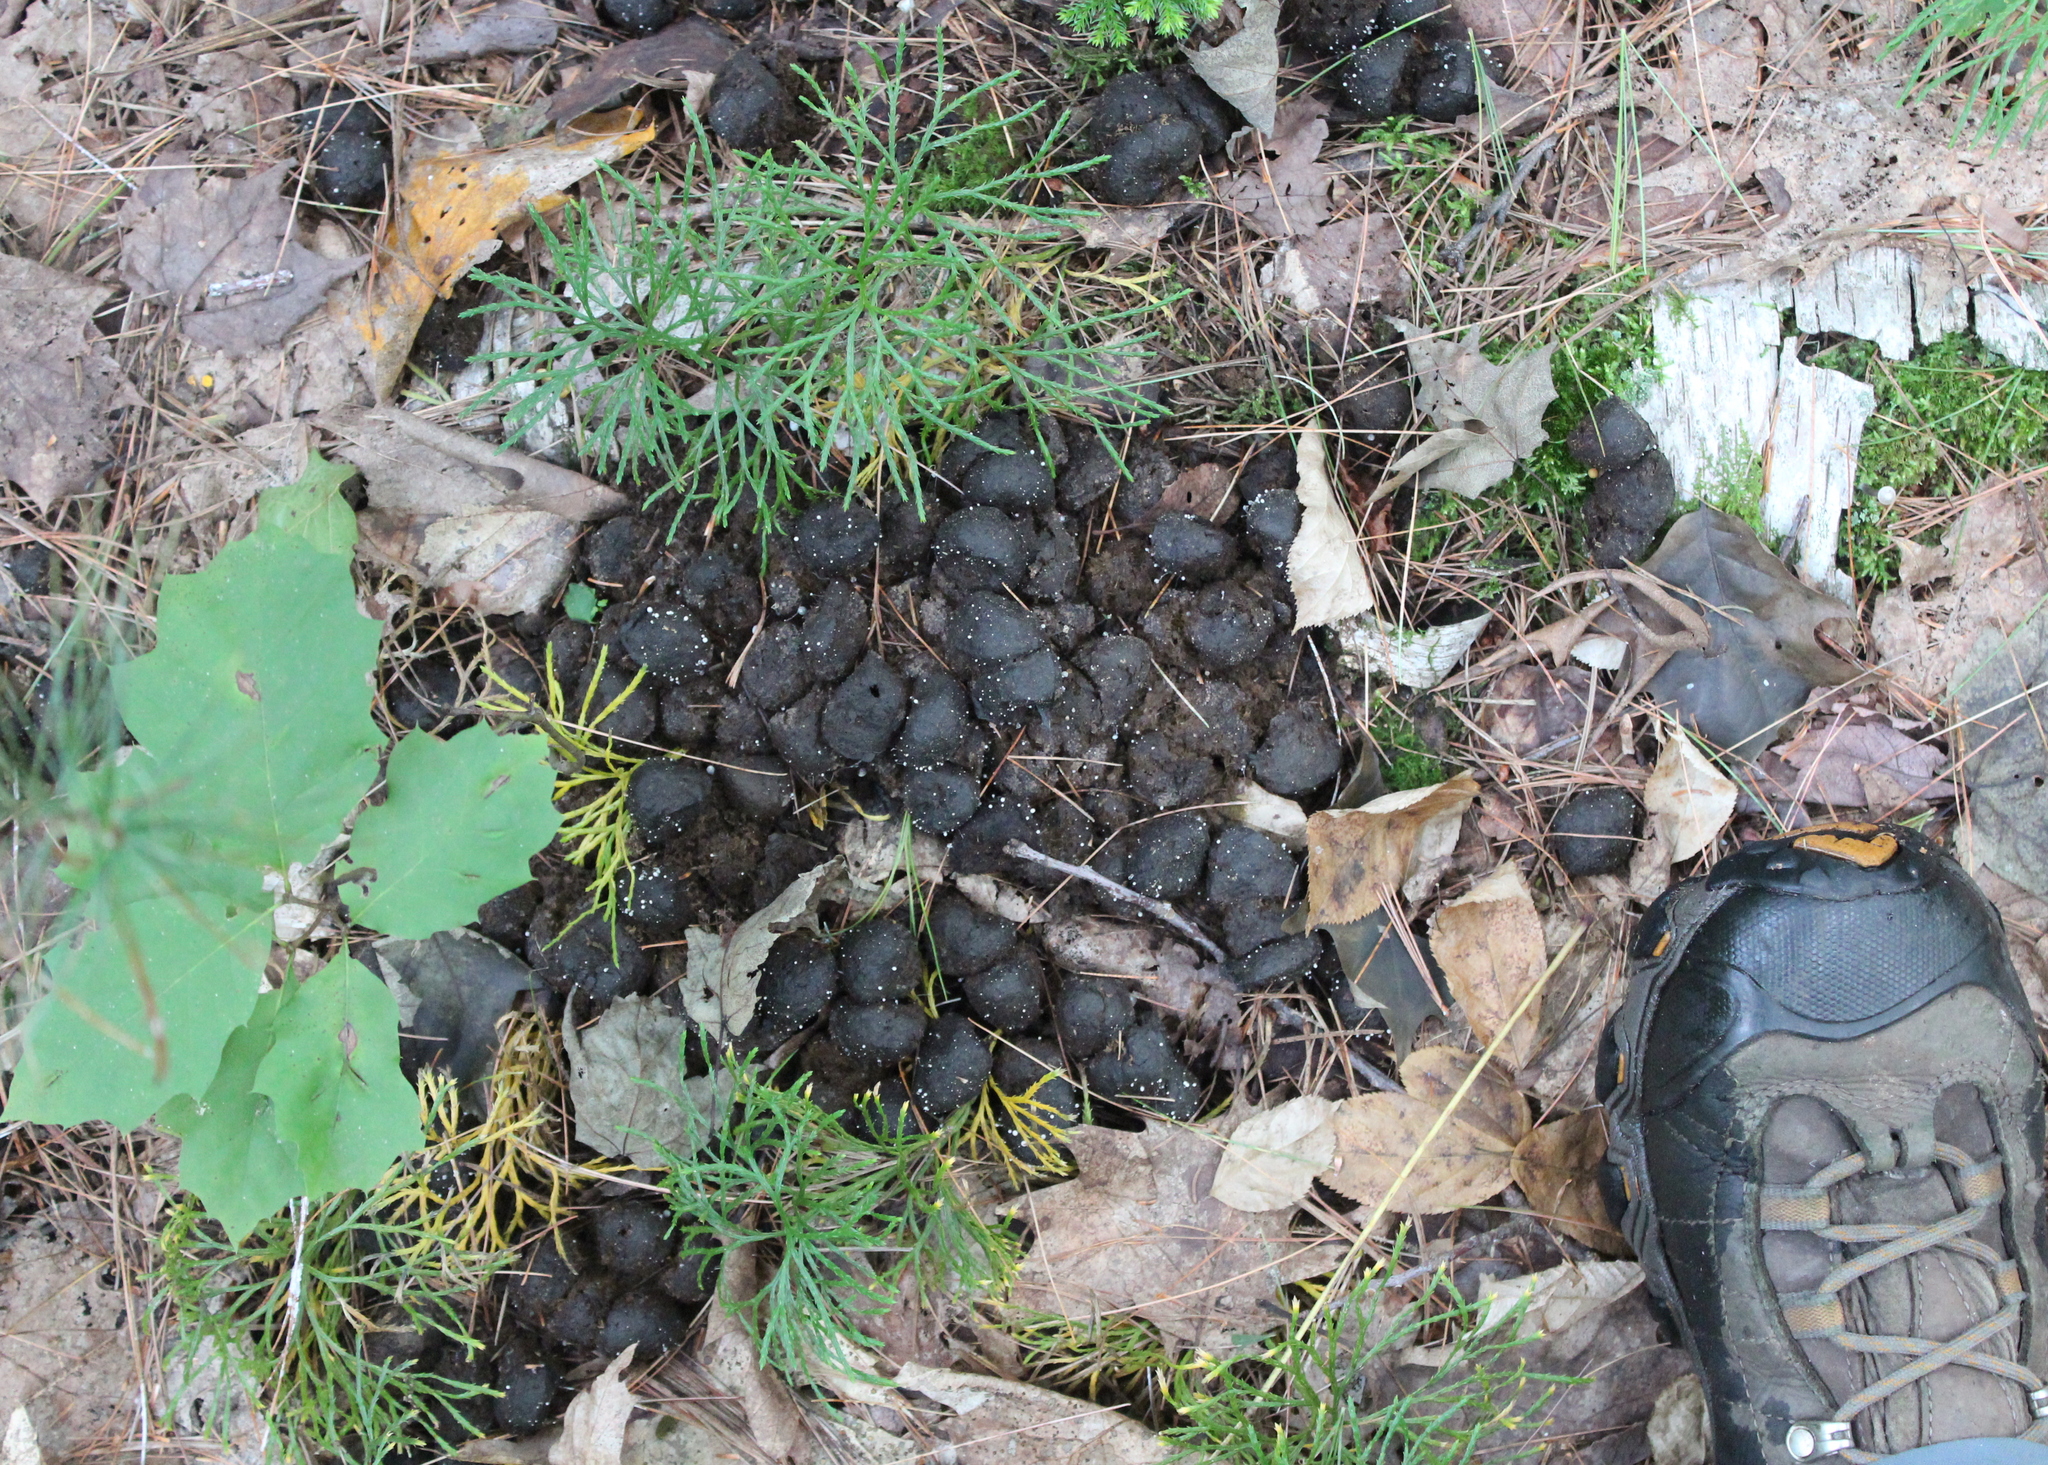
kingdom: Animalia
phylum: Chordata
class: Mammalia
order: Artiodactyla
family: Cervidae
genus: Alces
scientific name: Alces alces
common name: Moose
